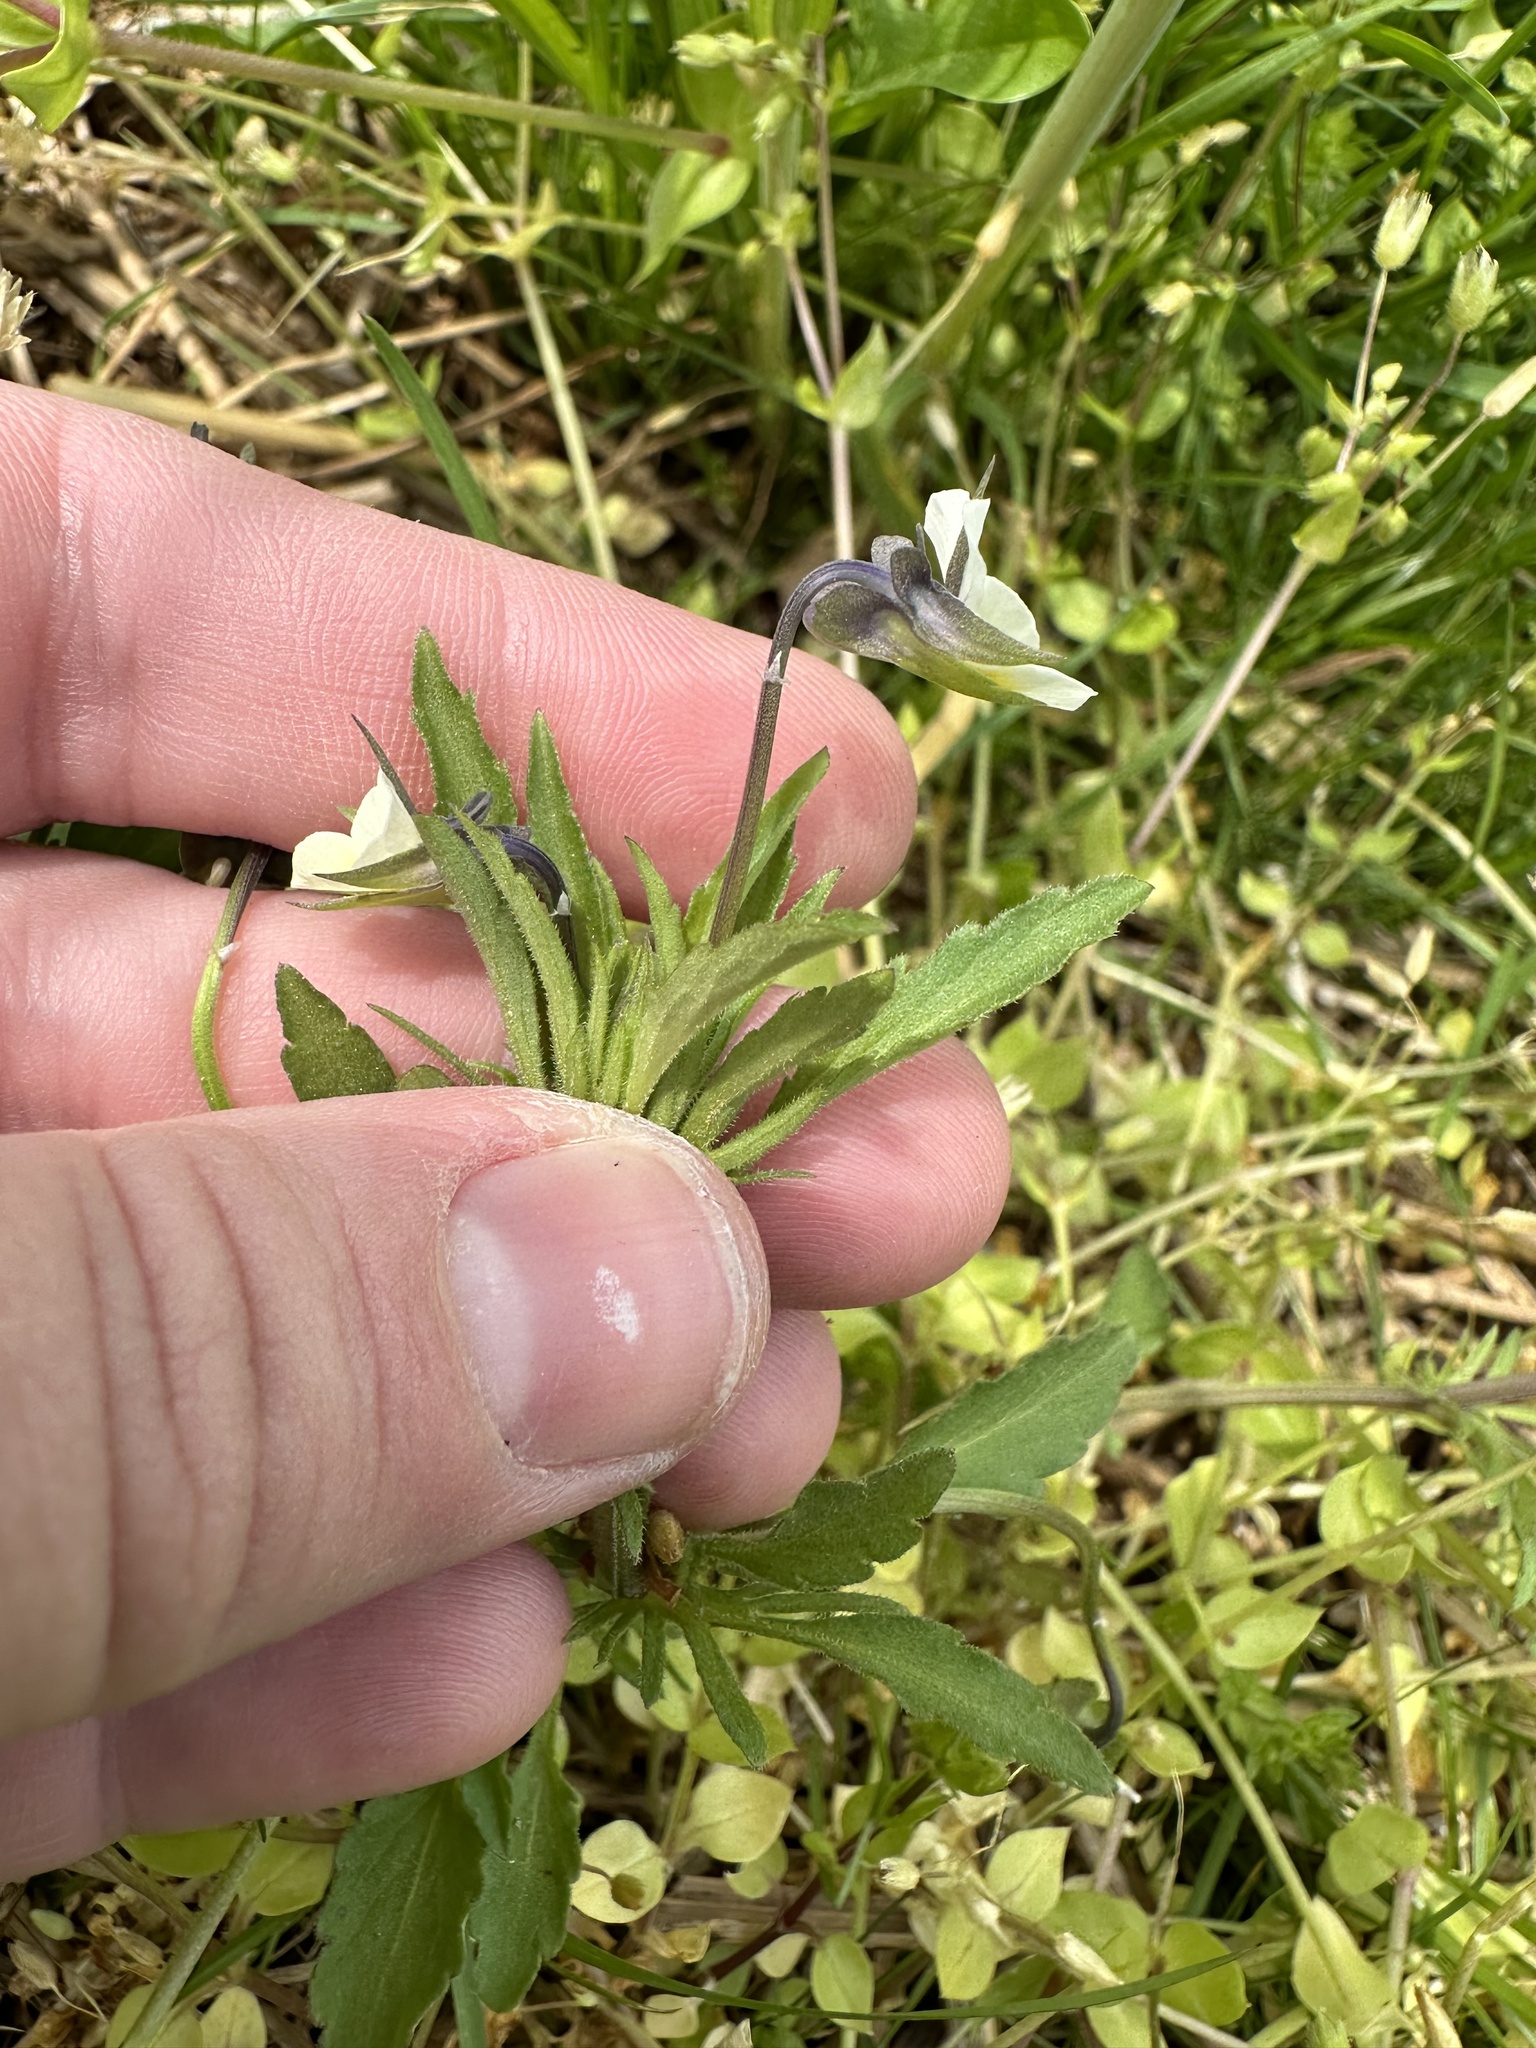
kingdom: Plantae
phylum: Tracheophyta
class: Magnoliopsida
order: Malpighiales
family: Violaceae
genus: Viola
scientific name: Viola arvensis
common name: Field pansy
